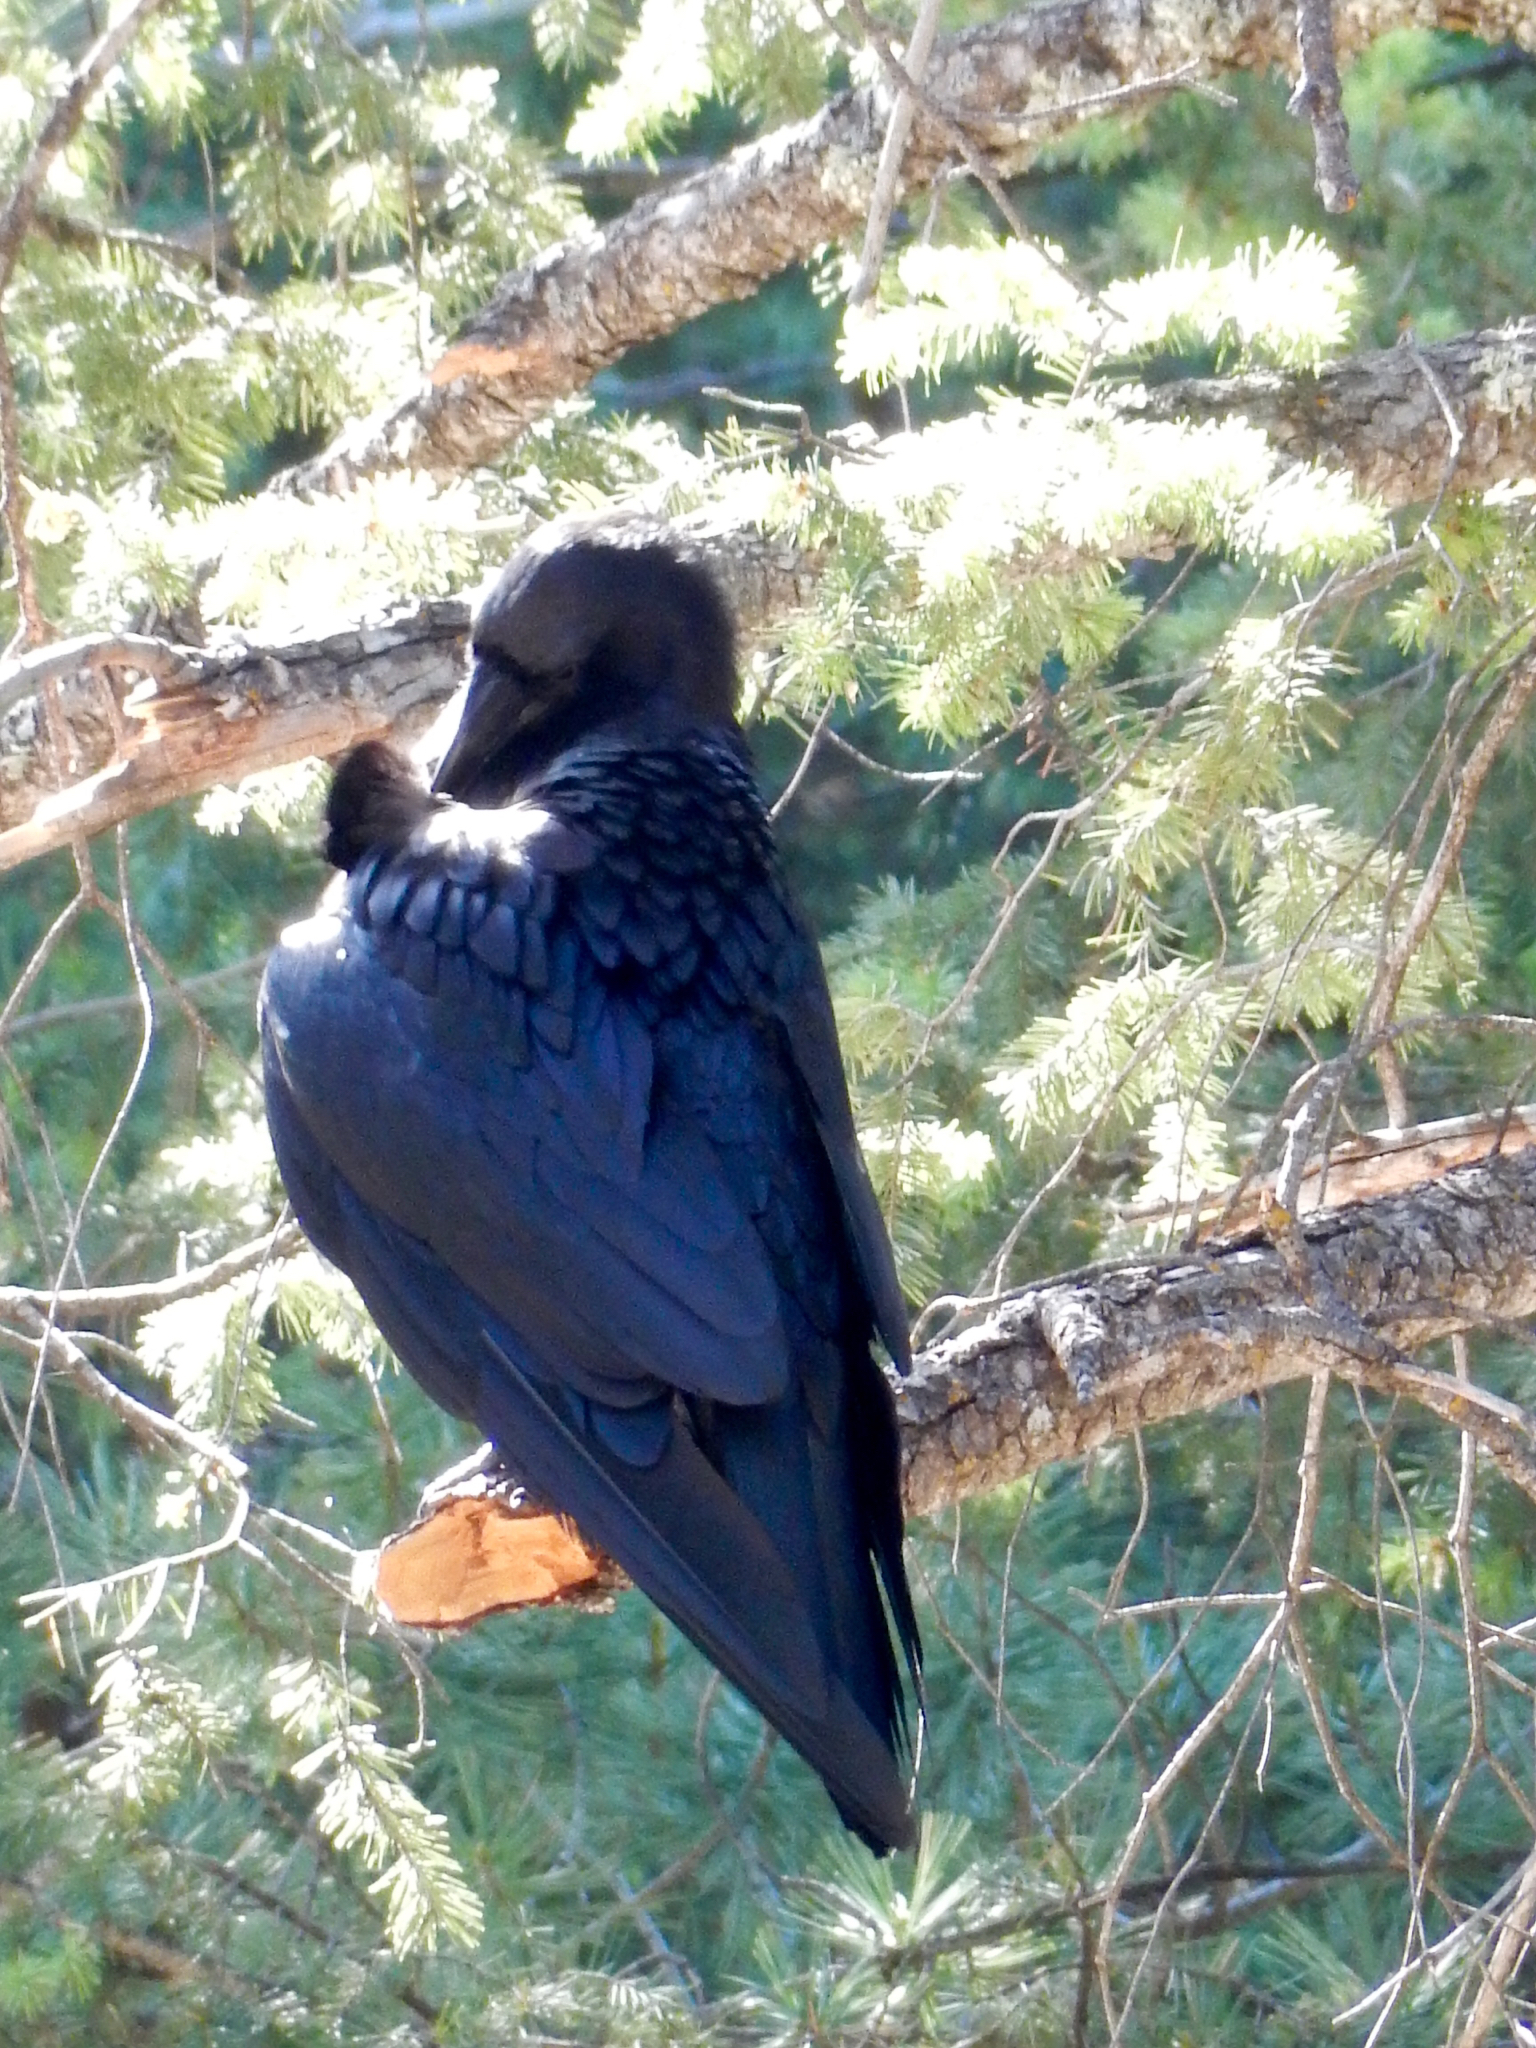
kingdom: Animalia
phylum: Chordata
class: Aves
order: Passeriformes
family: Corvidae
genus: Corvus
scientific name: Corvus corax
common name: Common raven
